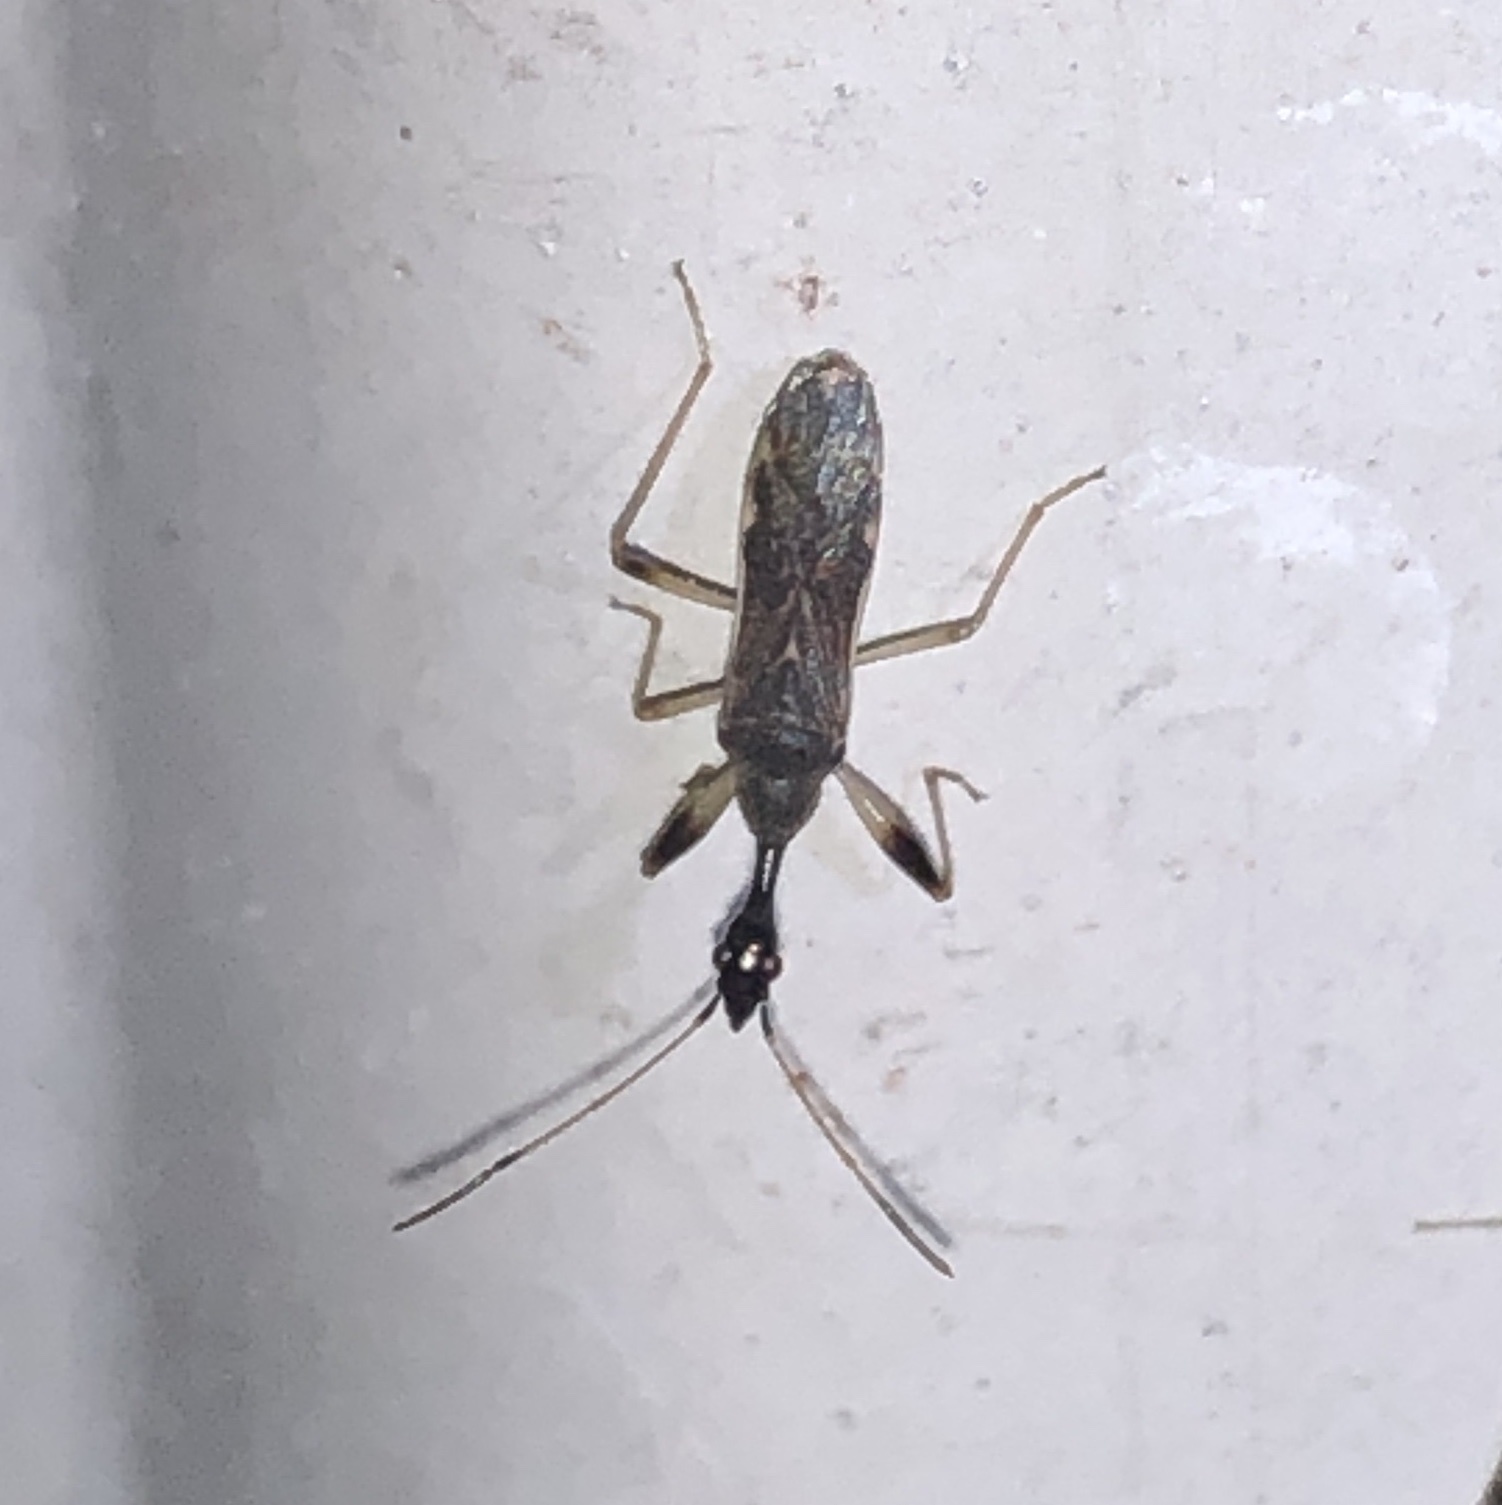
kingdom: Animalia
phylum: Arthropoda
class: Insecta
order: Hemiptera
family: Rhyparochromidae
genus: Myodocha
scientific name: Myodocha serripes
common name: Long-necked seed bug
